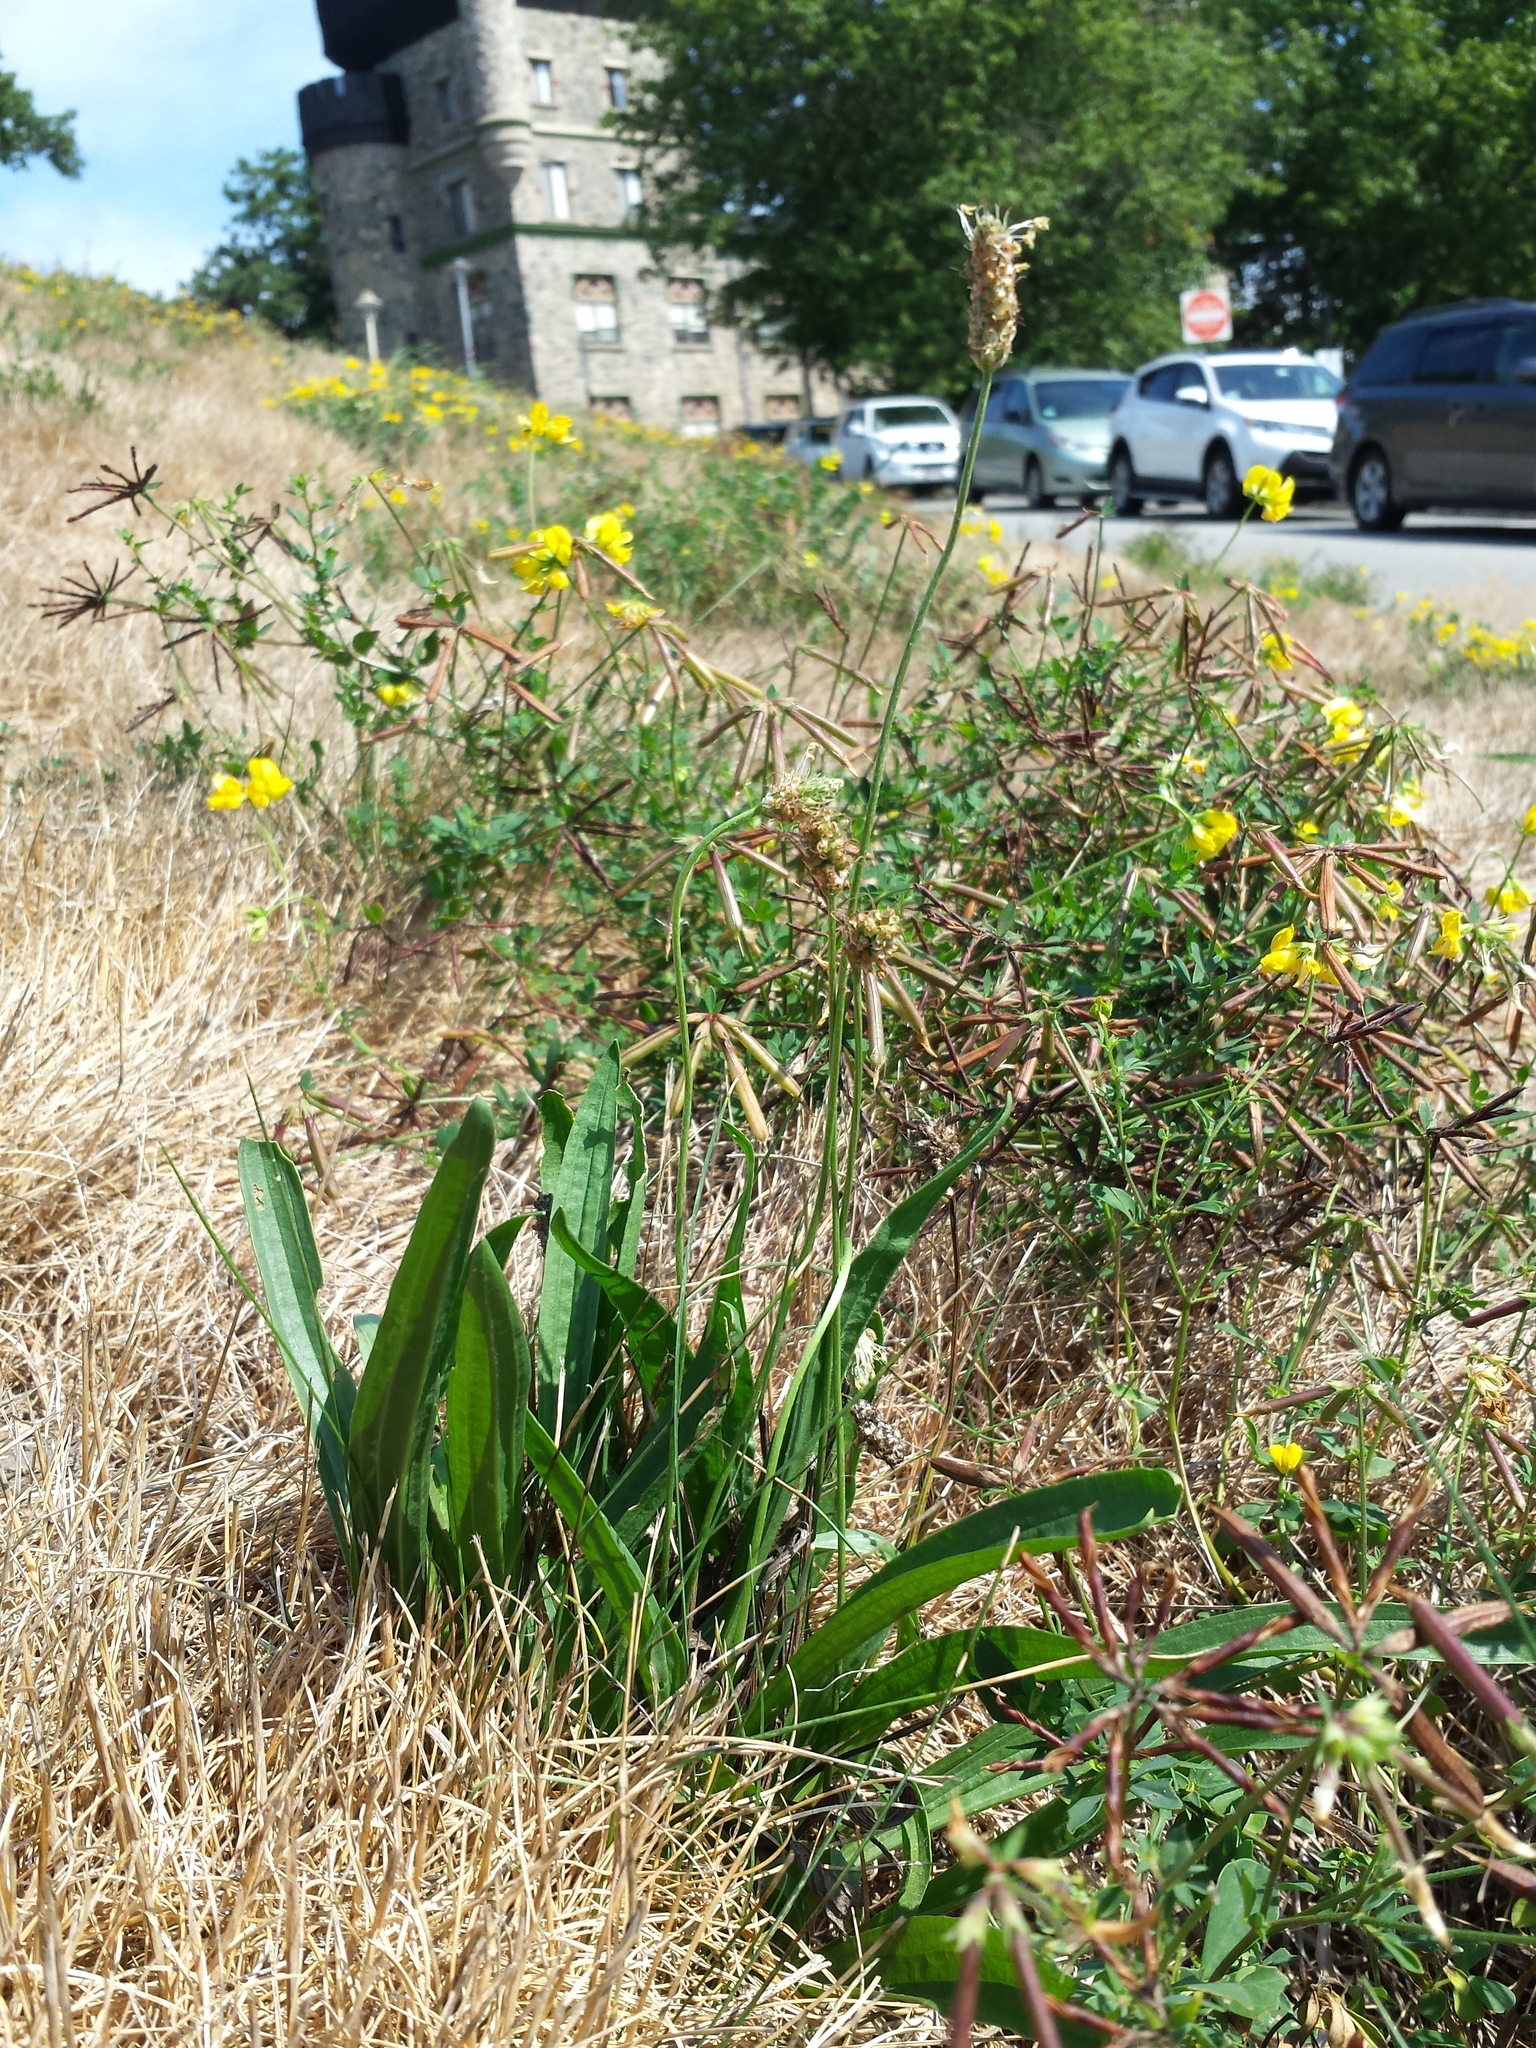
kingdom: Plantae
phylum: Tracheophyta
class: Magnoliopsida
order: Lamiales
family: Plantaginaceae
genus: Plantago
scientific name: Plantago lanceolata
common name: Ribwort plantain
